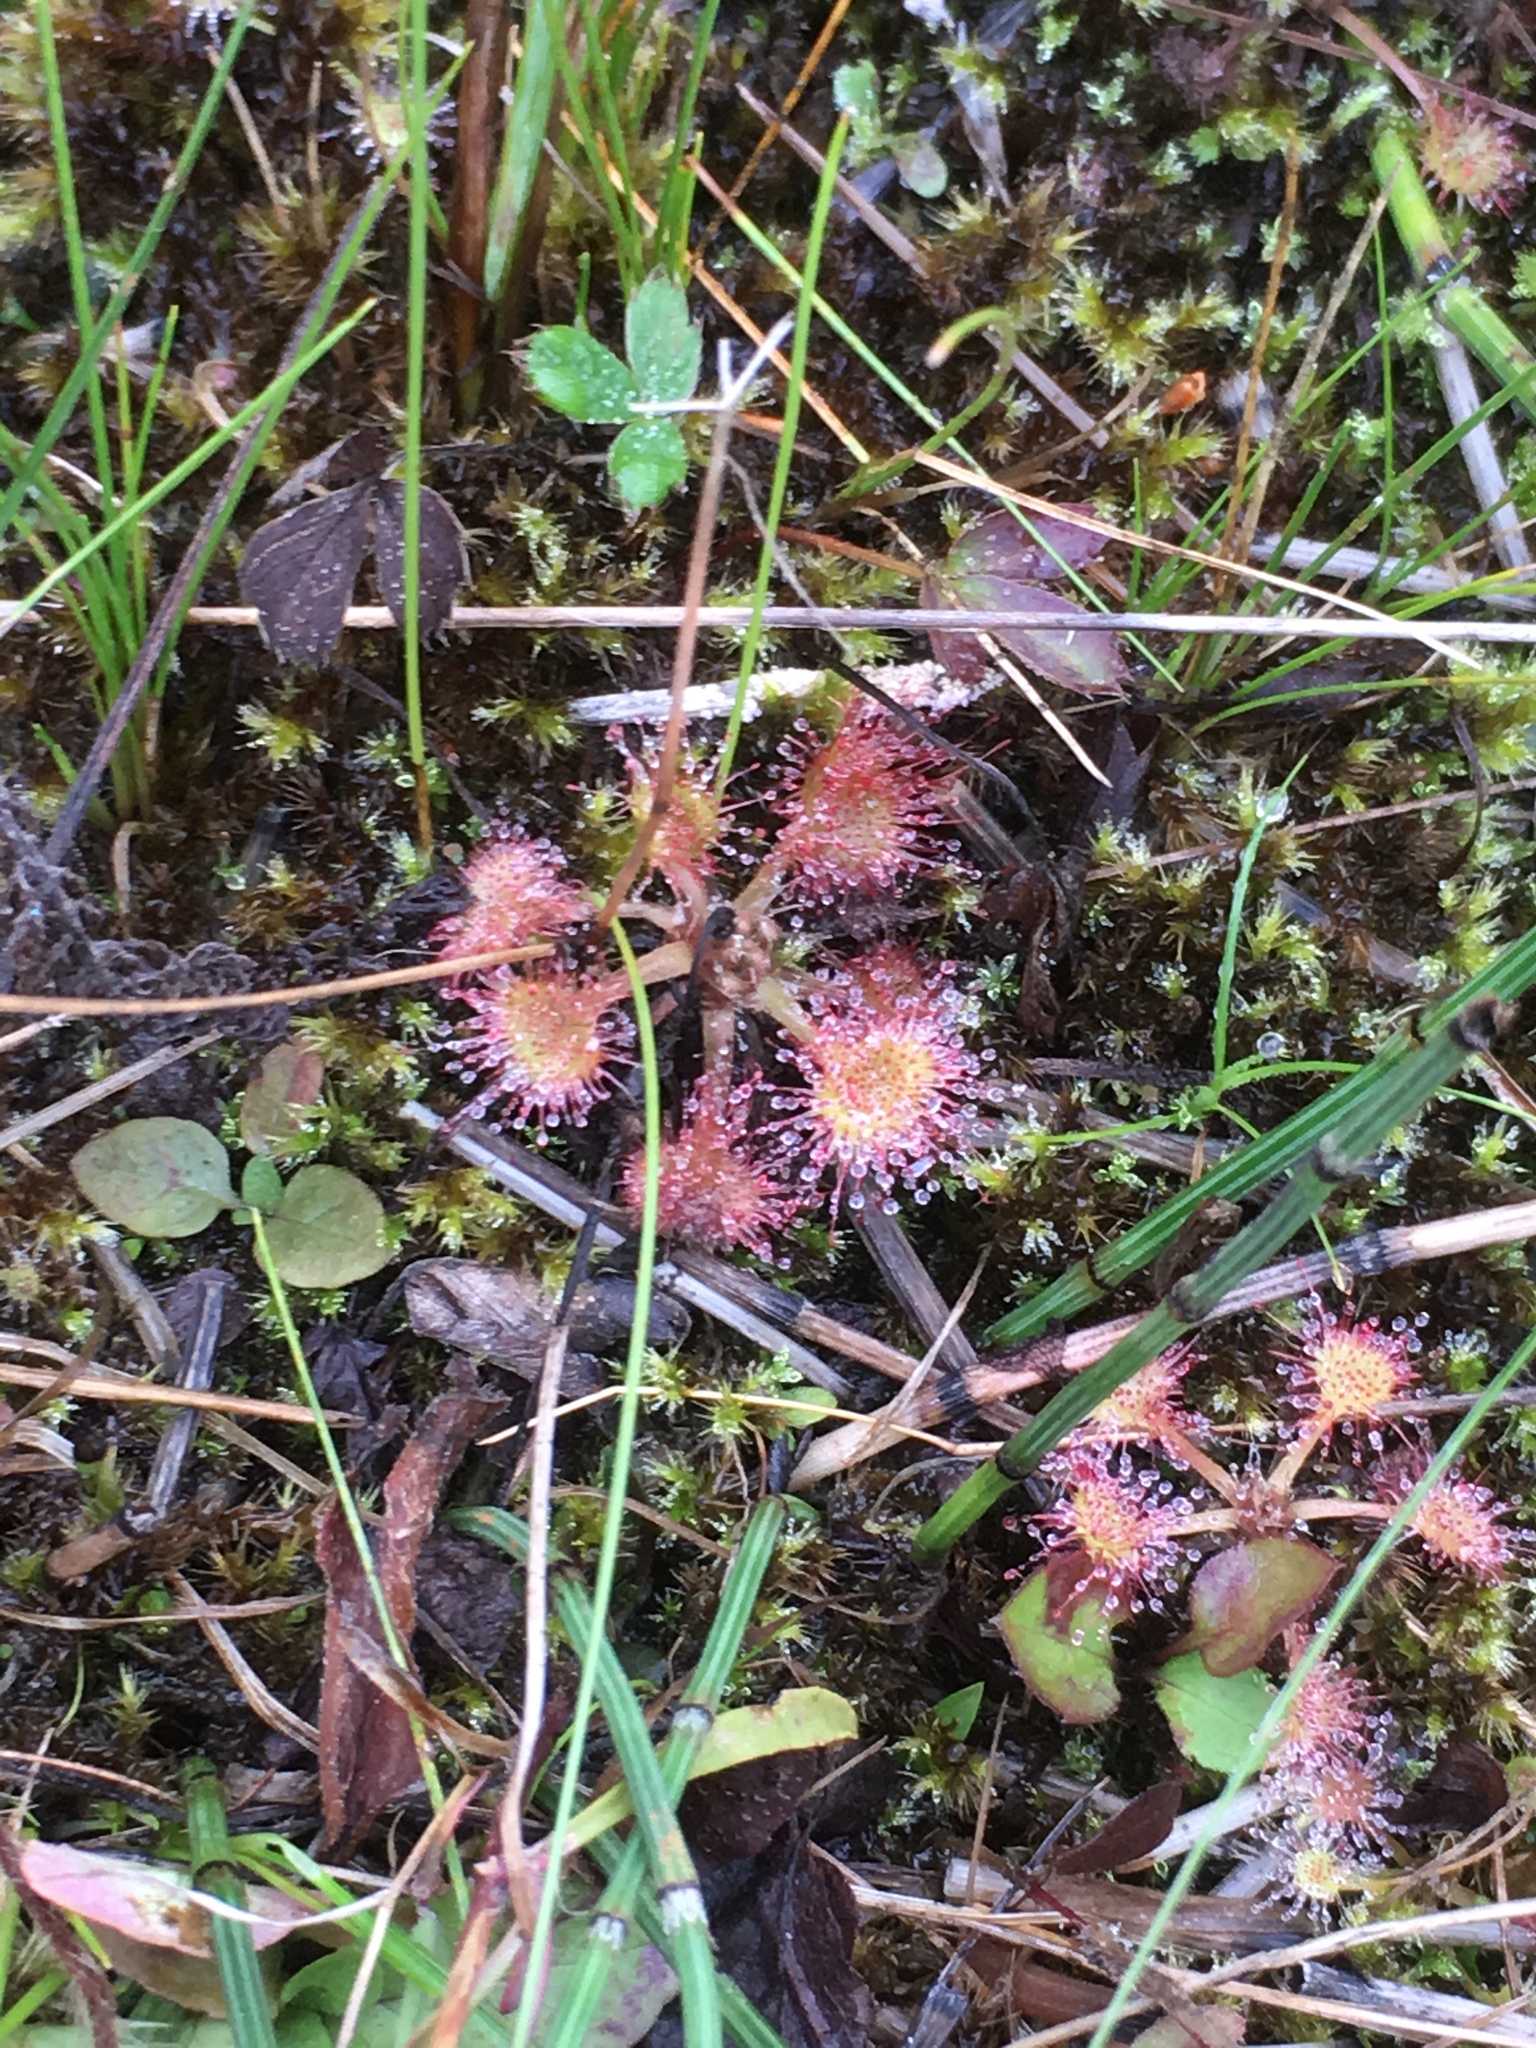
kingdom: Plantae
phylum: Tracheophyta
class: Magnoliopsida
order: Caryophyllales
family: Droseraceae
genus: Drosera
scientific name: Drosera rotundifolia
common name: Round-leaved sundew
